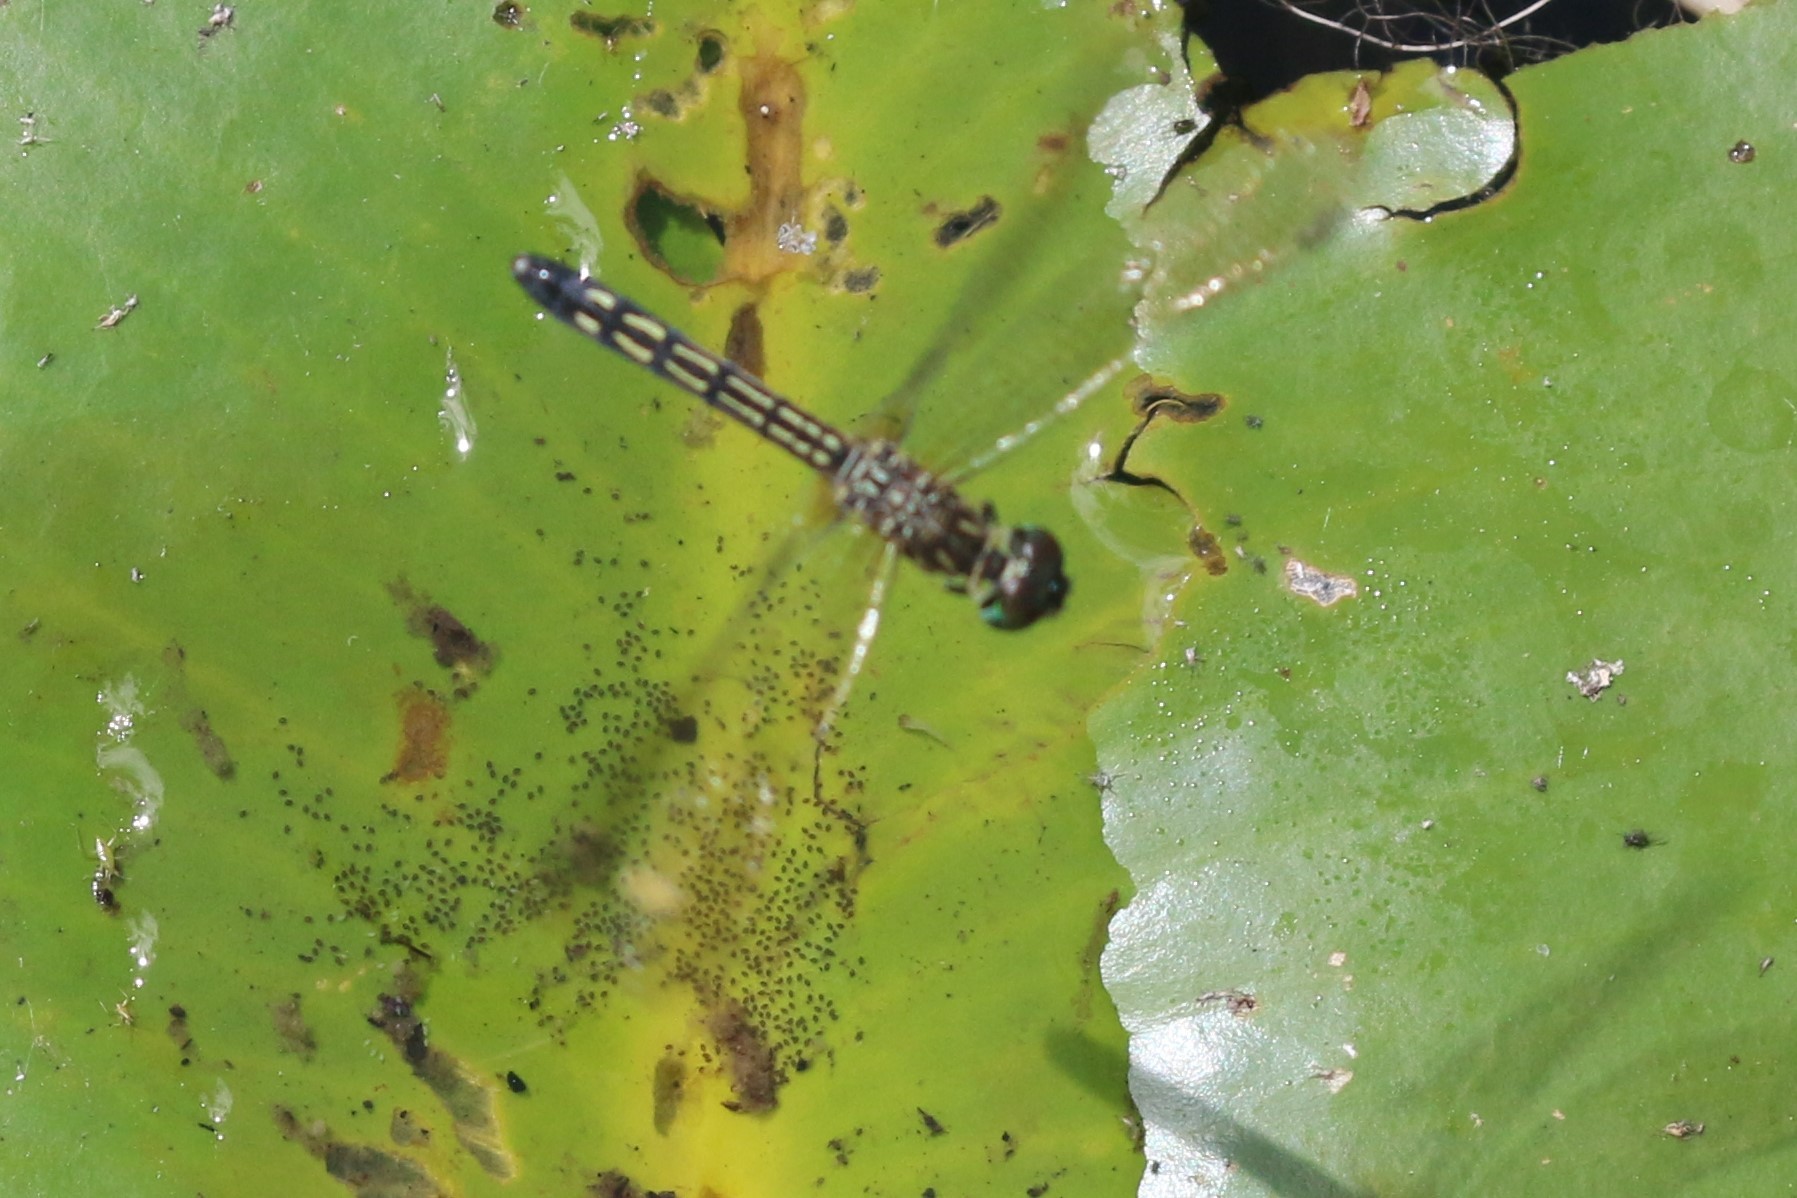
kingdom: Animalia
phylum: Arthropoda
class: Insecta
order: Odonata
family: Libellulidae
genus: Pachydiplax
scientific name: Pachydiplax longipennis
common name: Blue dasher
